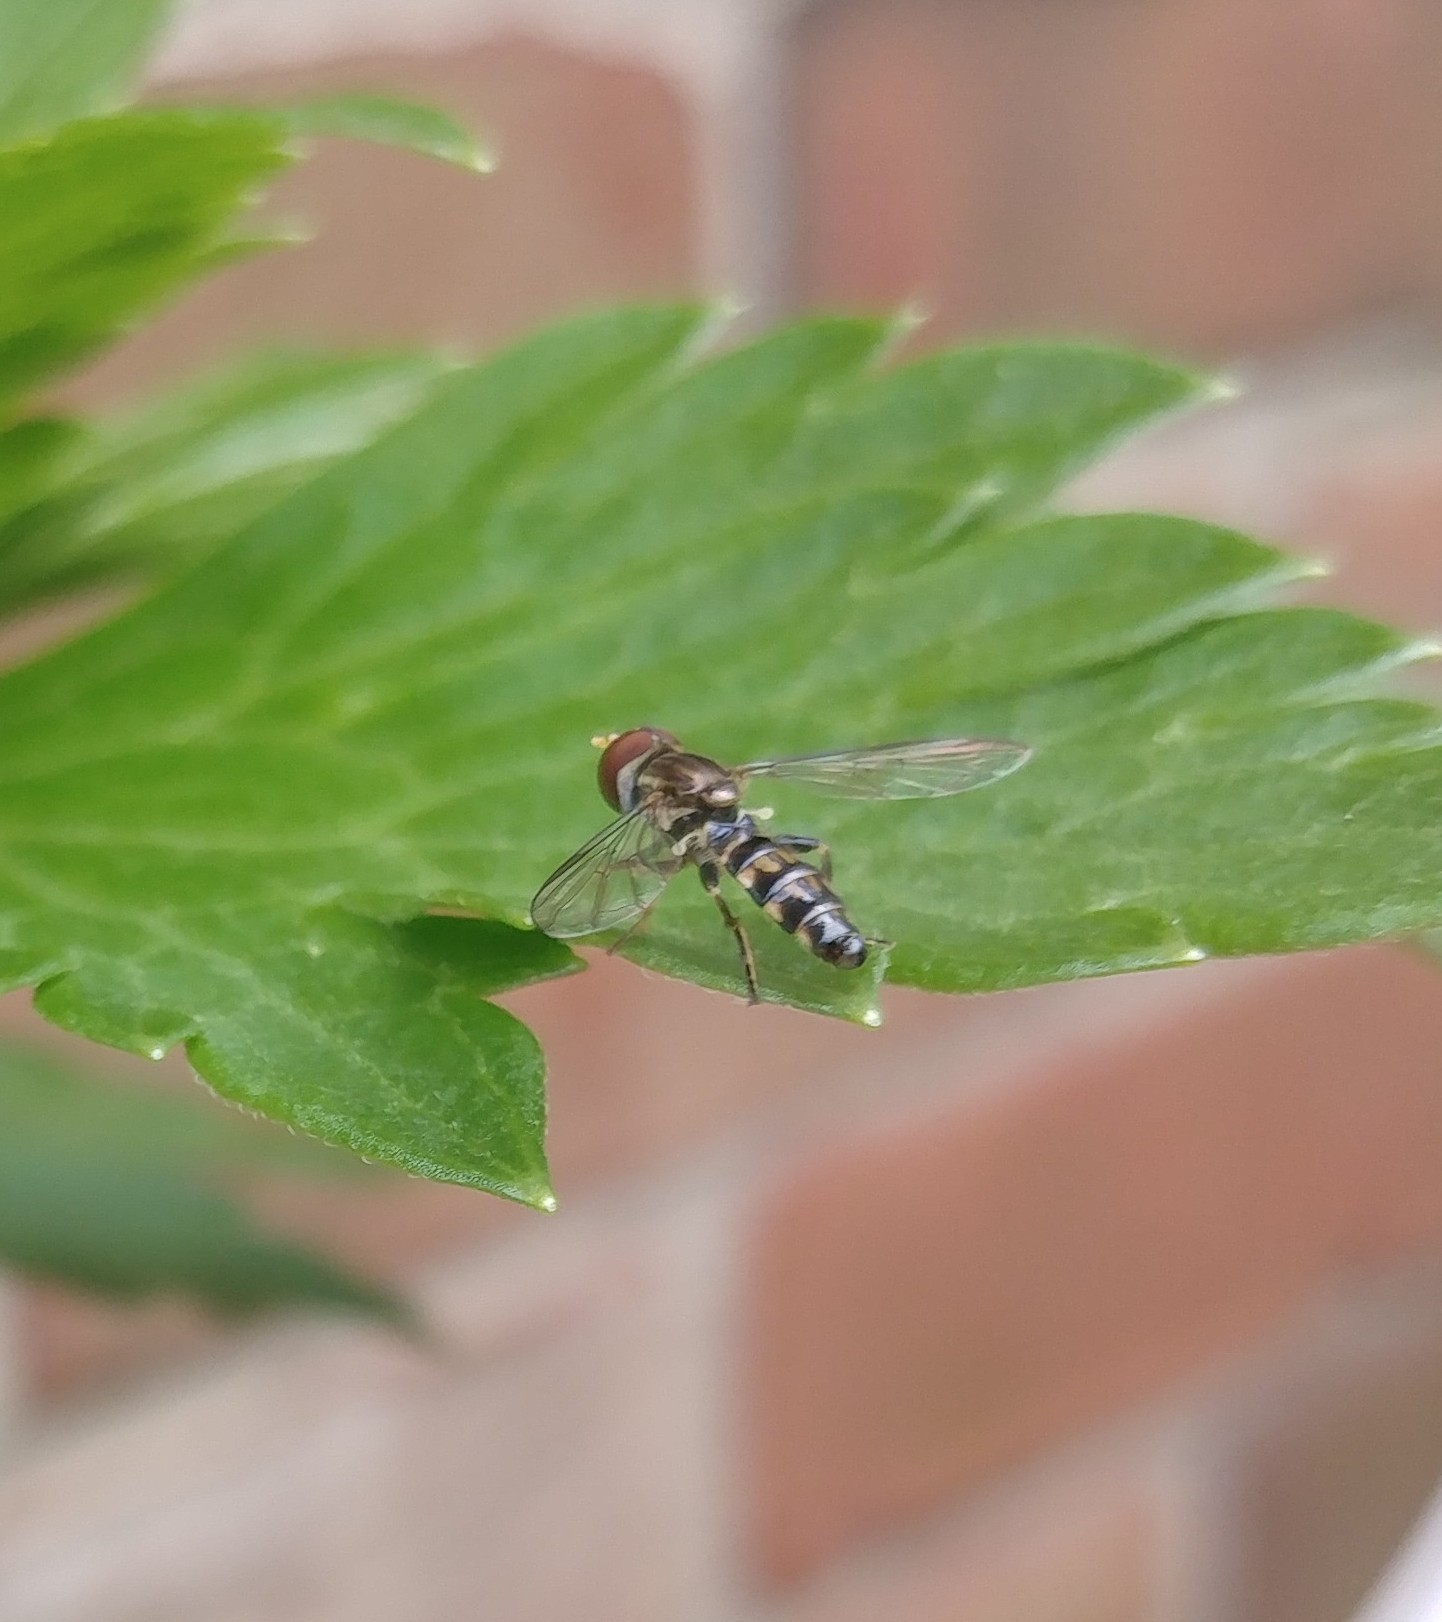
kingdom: Animalia
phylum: Arthropoda
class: Insecta
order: Diptera
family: Syrphidae
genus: Toxomerus
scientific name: Toxomerus geminatus
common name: Eastern calligrapher
